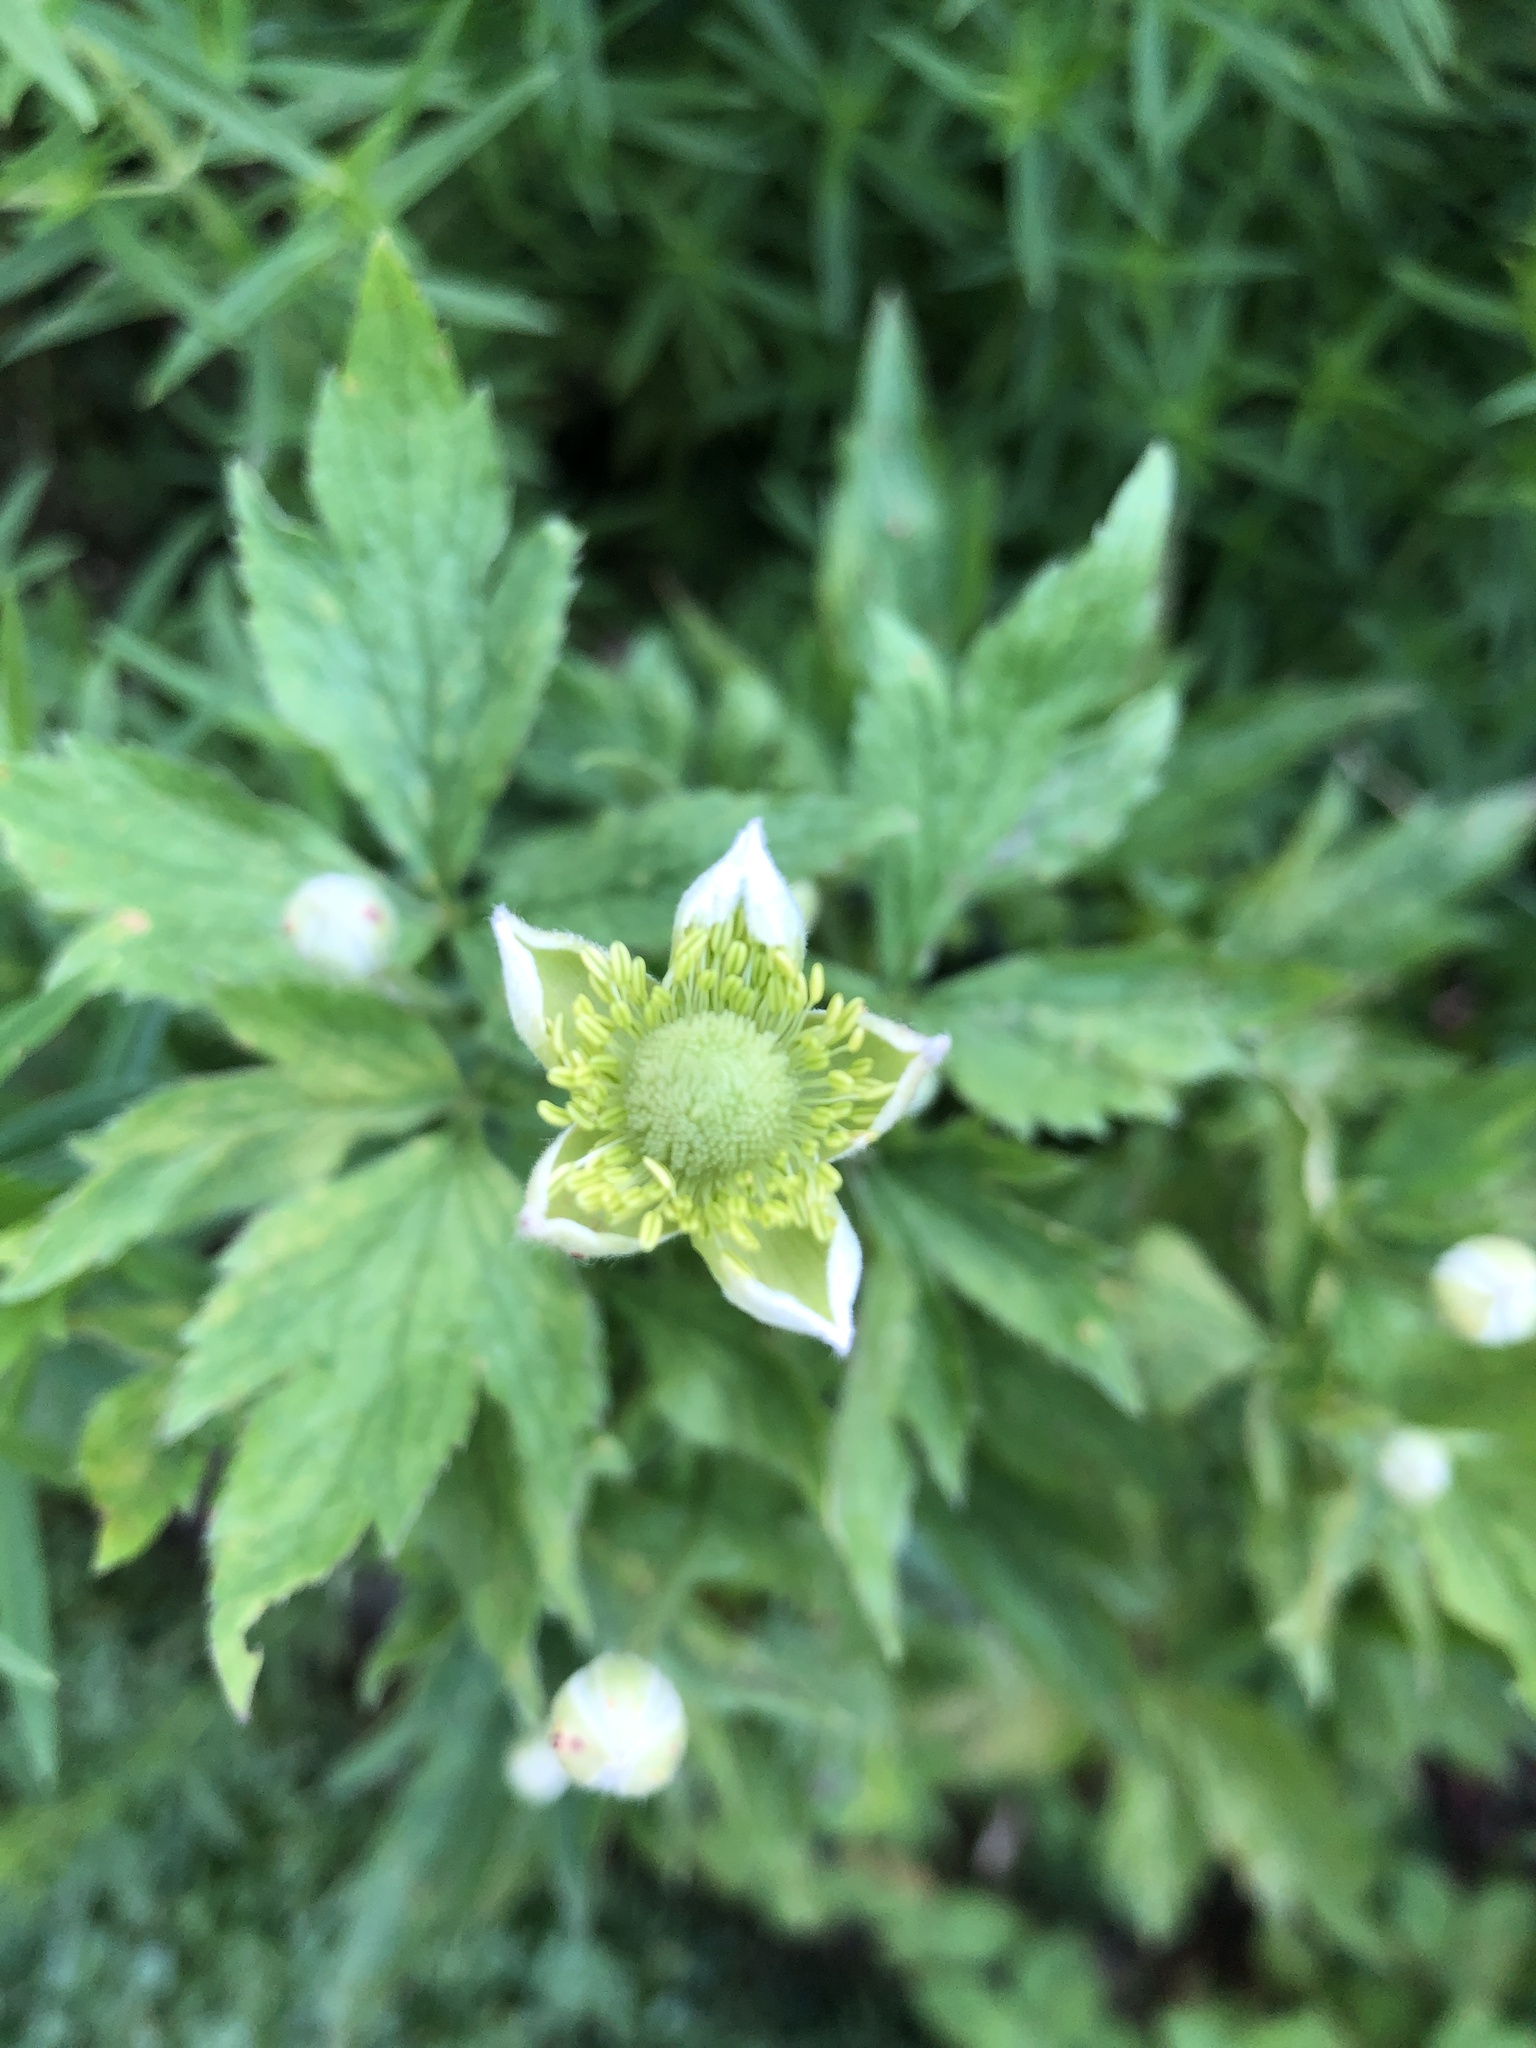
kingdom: Plantae
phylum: Tracheophyta
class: Magnoliopsida
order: Ranunculales
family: Ranunculaceae
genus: Anemone
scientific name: Anemone virginiana
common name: Tall anemone
